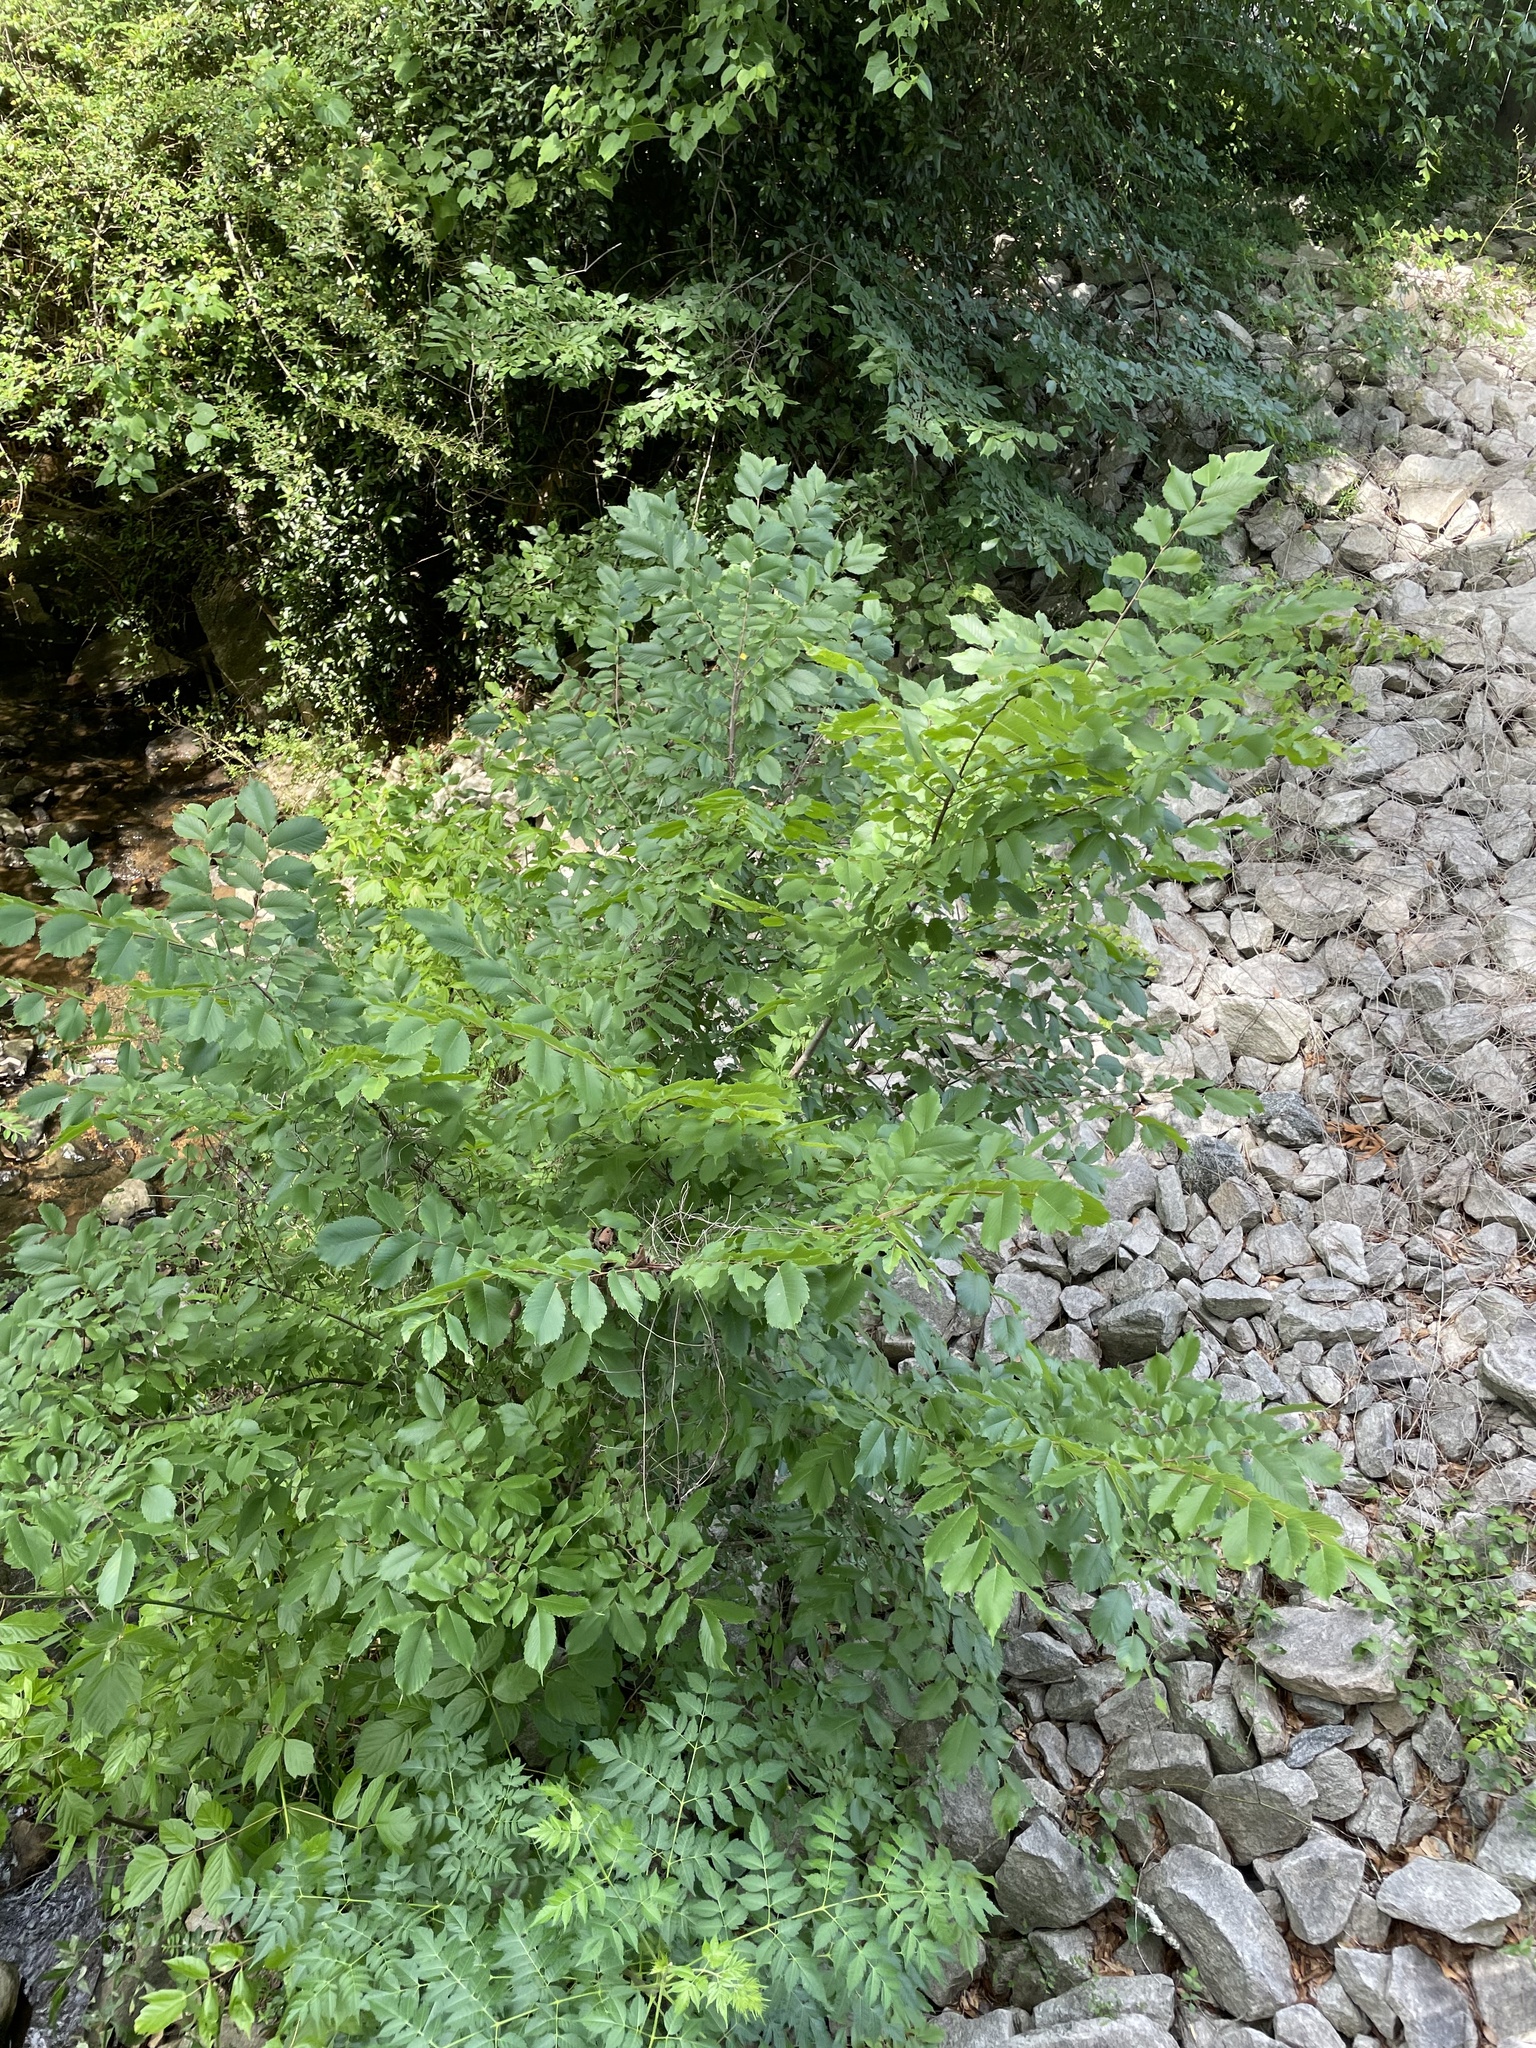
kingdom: Plantae
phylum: Tracheophyta
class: Magnoliopsida
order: Rosales
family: Ulmaceae
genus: Ulmus
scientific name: Ulmus americana
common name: American elm
